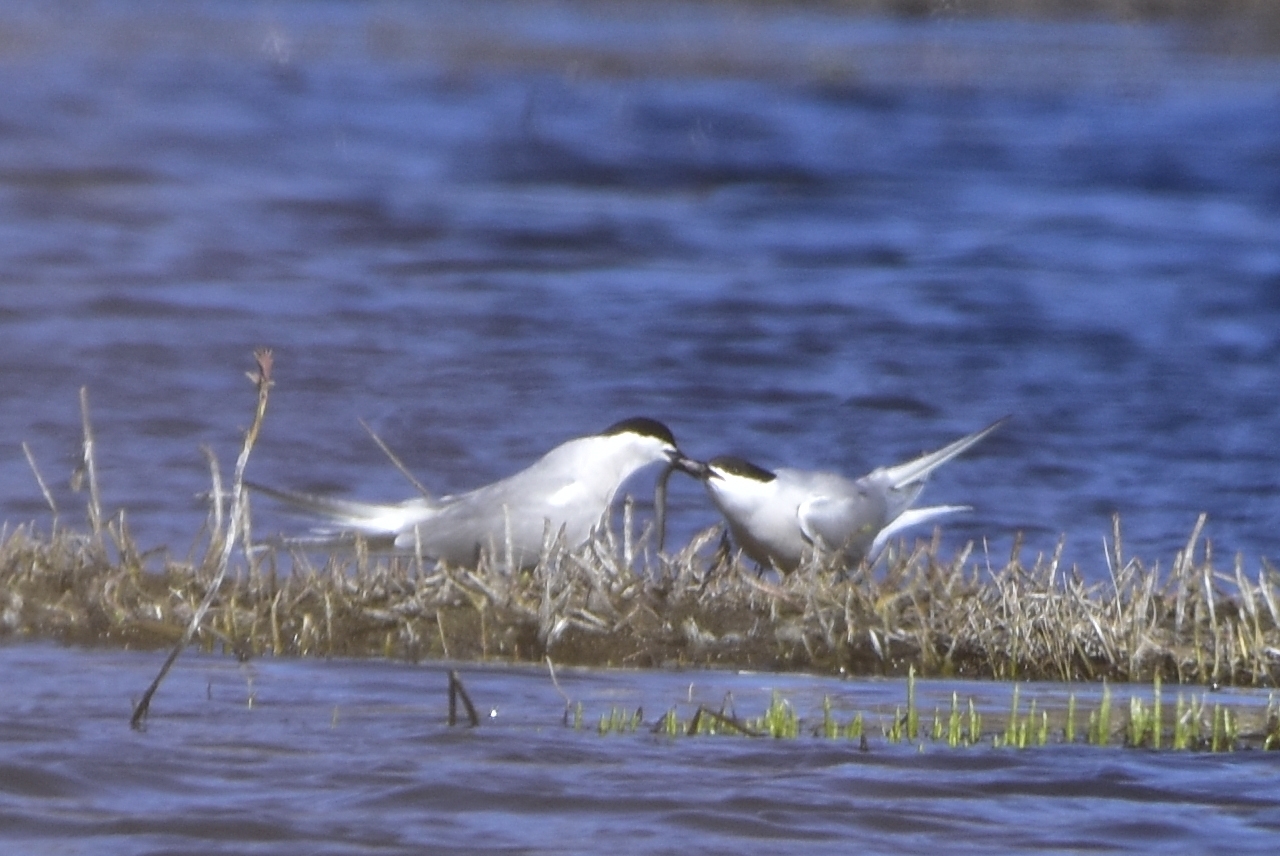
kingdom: Animalia
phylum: Chordata
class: Aves
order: Charadriiformes
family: Laridae
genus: Sterna
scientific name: Sterna hirundo
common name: Common tern
